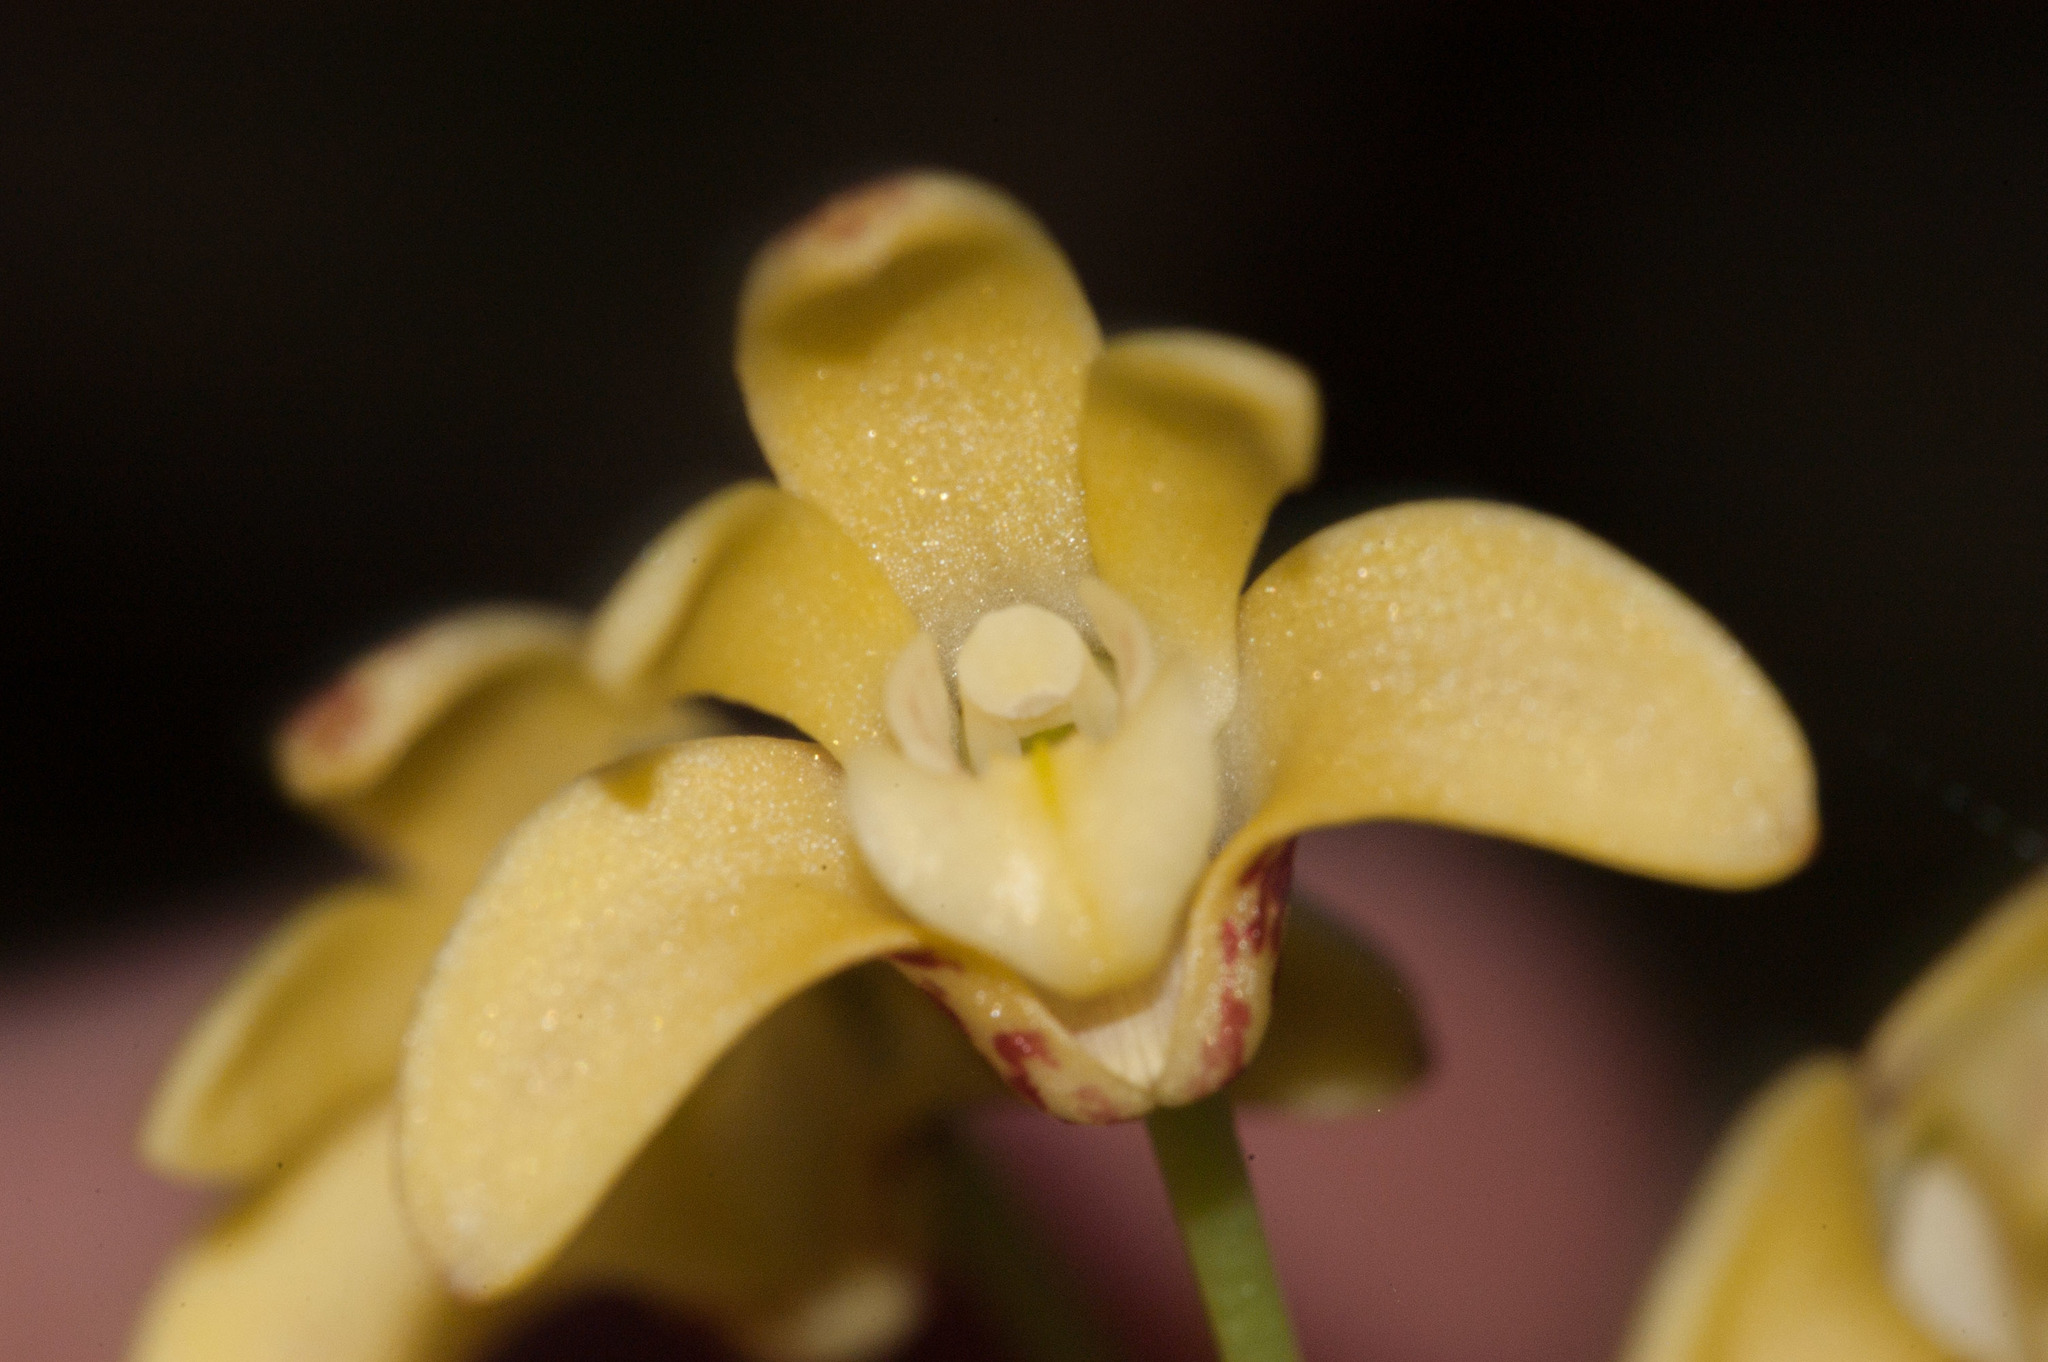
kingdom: Plantae
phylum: Tracheophyta
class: Liliopsida
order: Asparagales
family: Orchidaceae
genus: Dendrobium
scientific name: Dendrobium gracilicaule
